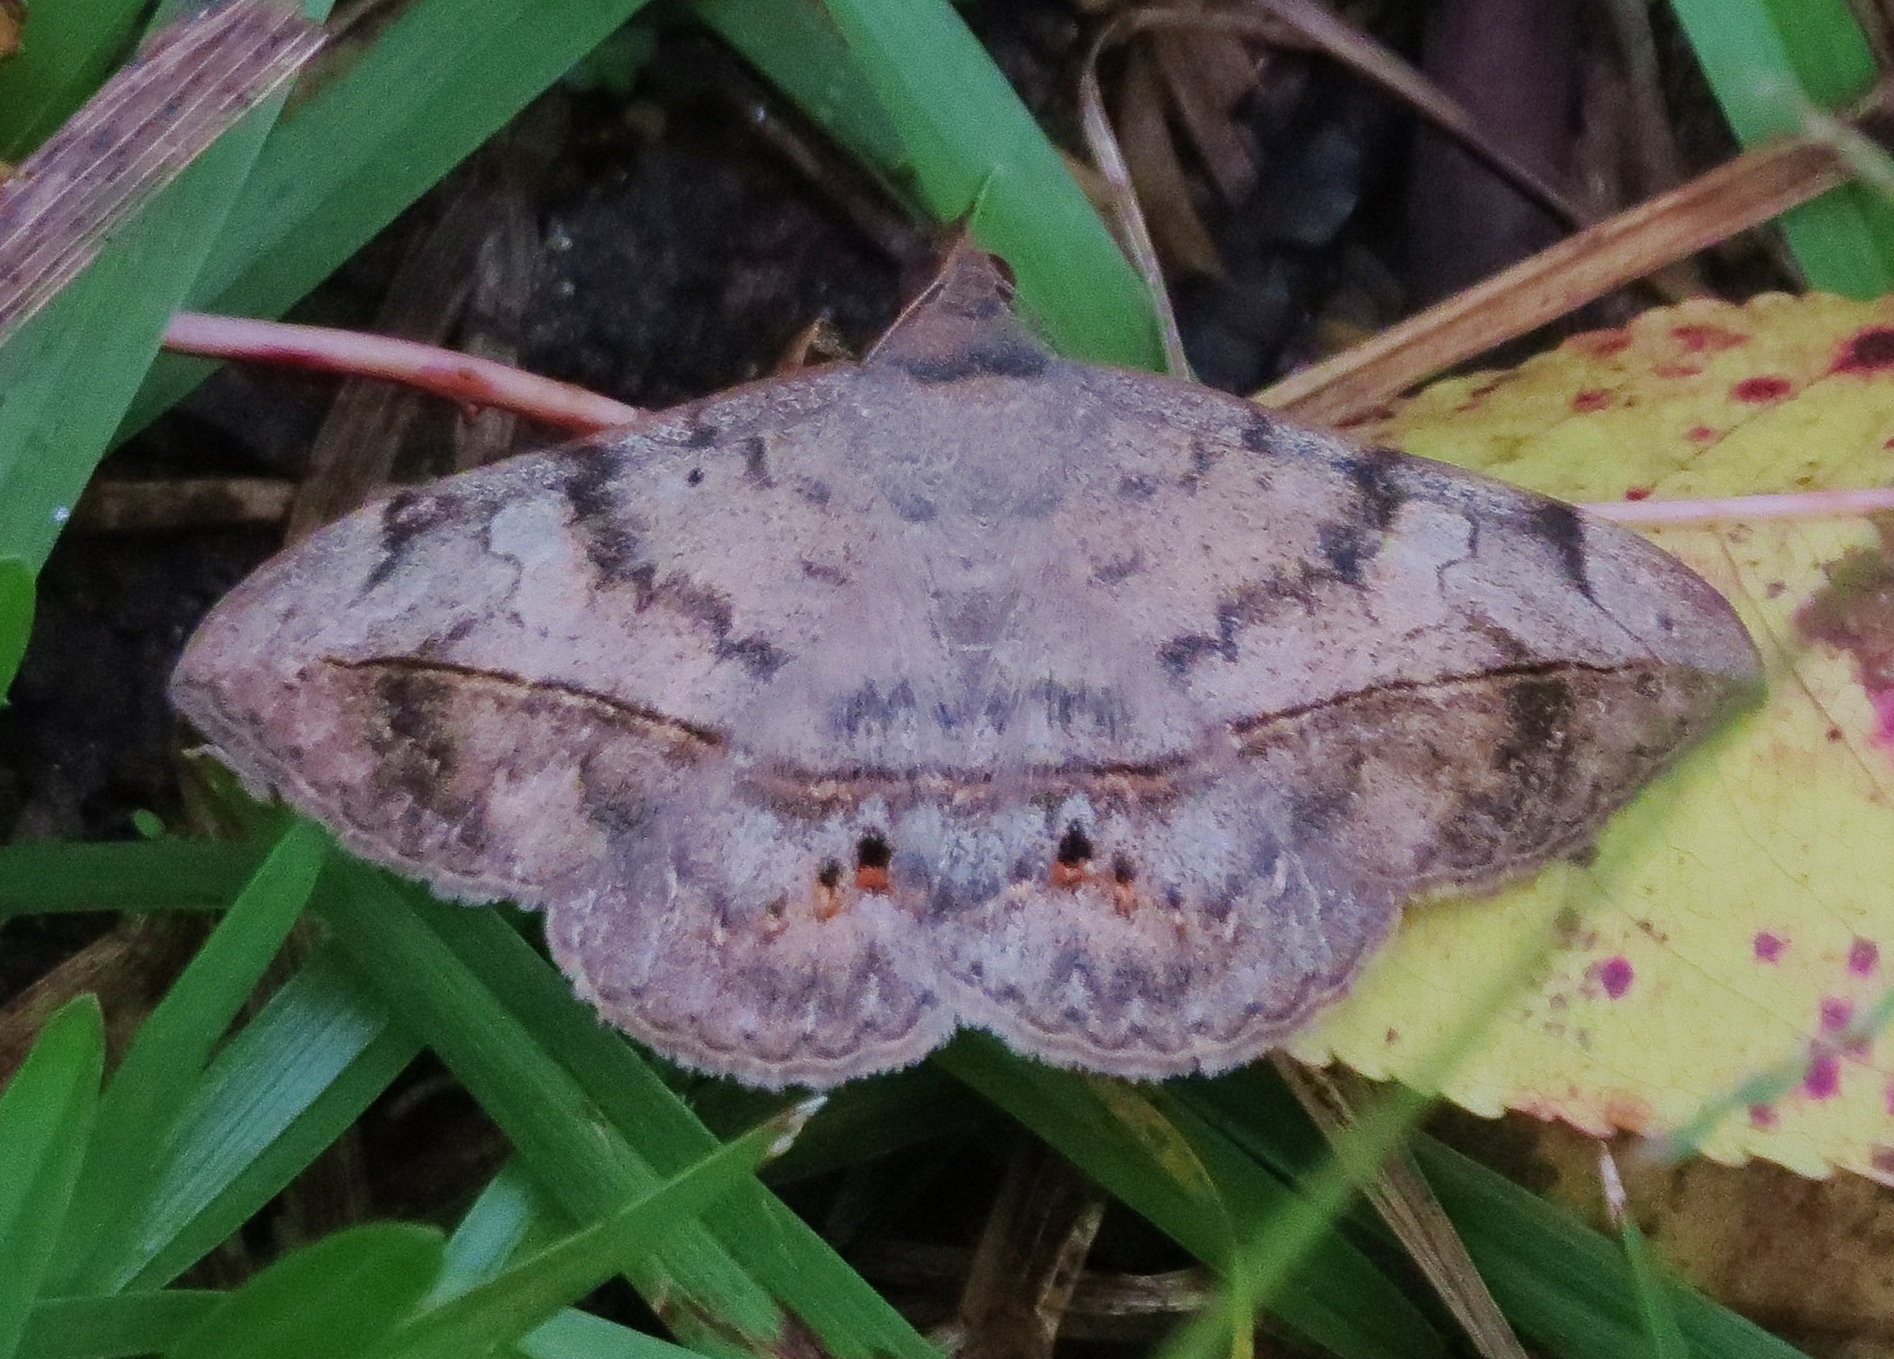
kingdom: Animalia
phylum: Arthropoda
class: Insecta
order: Lepidoptera
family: Erebidae
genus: Anticarsia
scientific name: Anticarsia gemmatalis
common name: Cutworm moth
